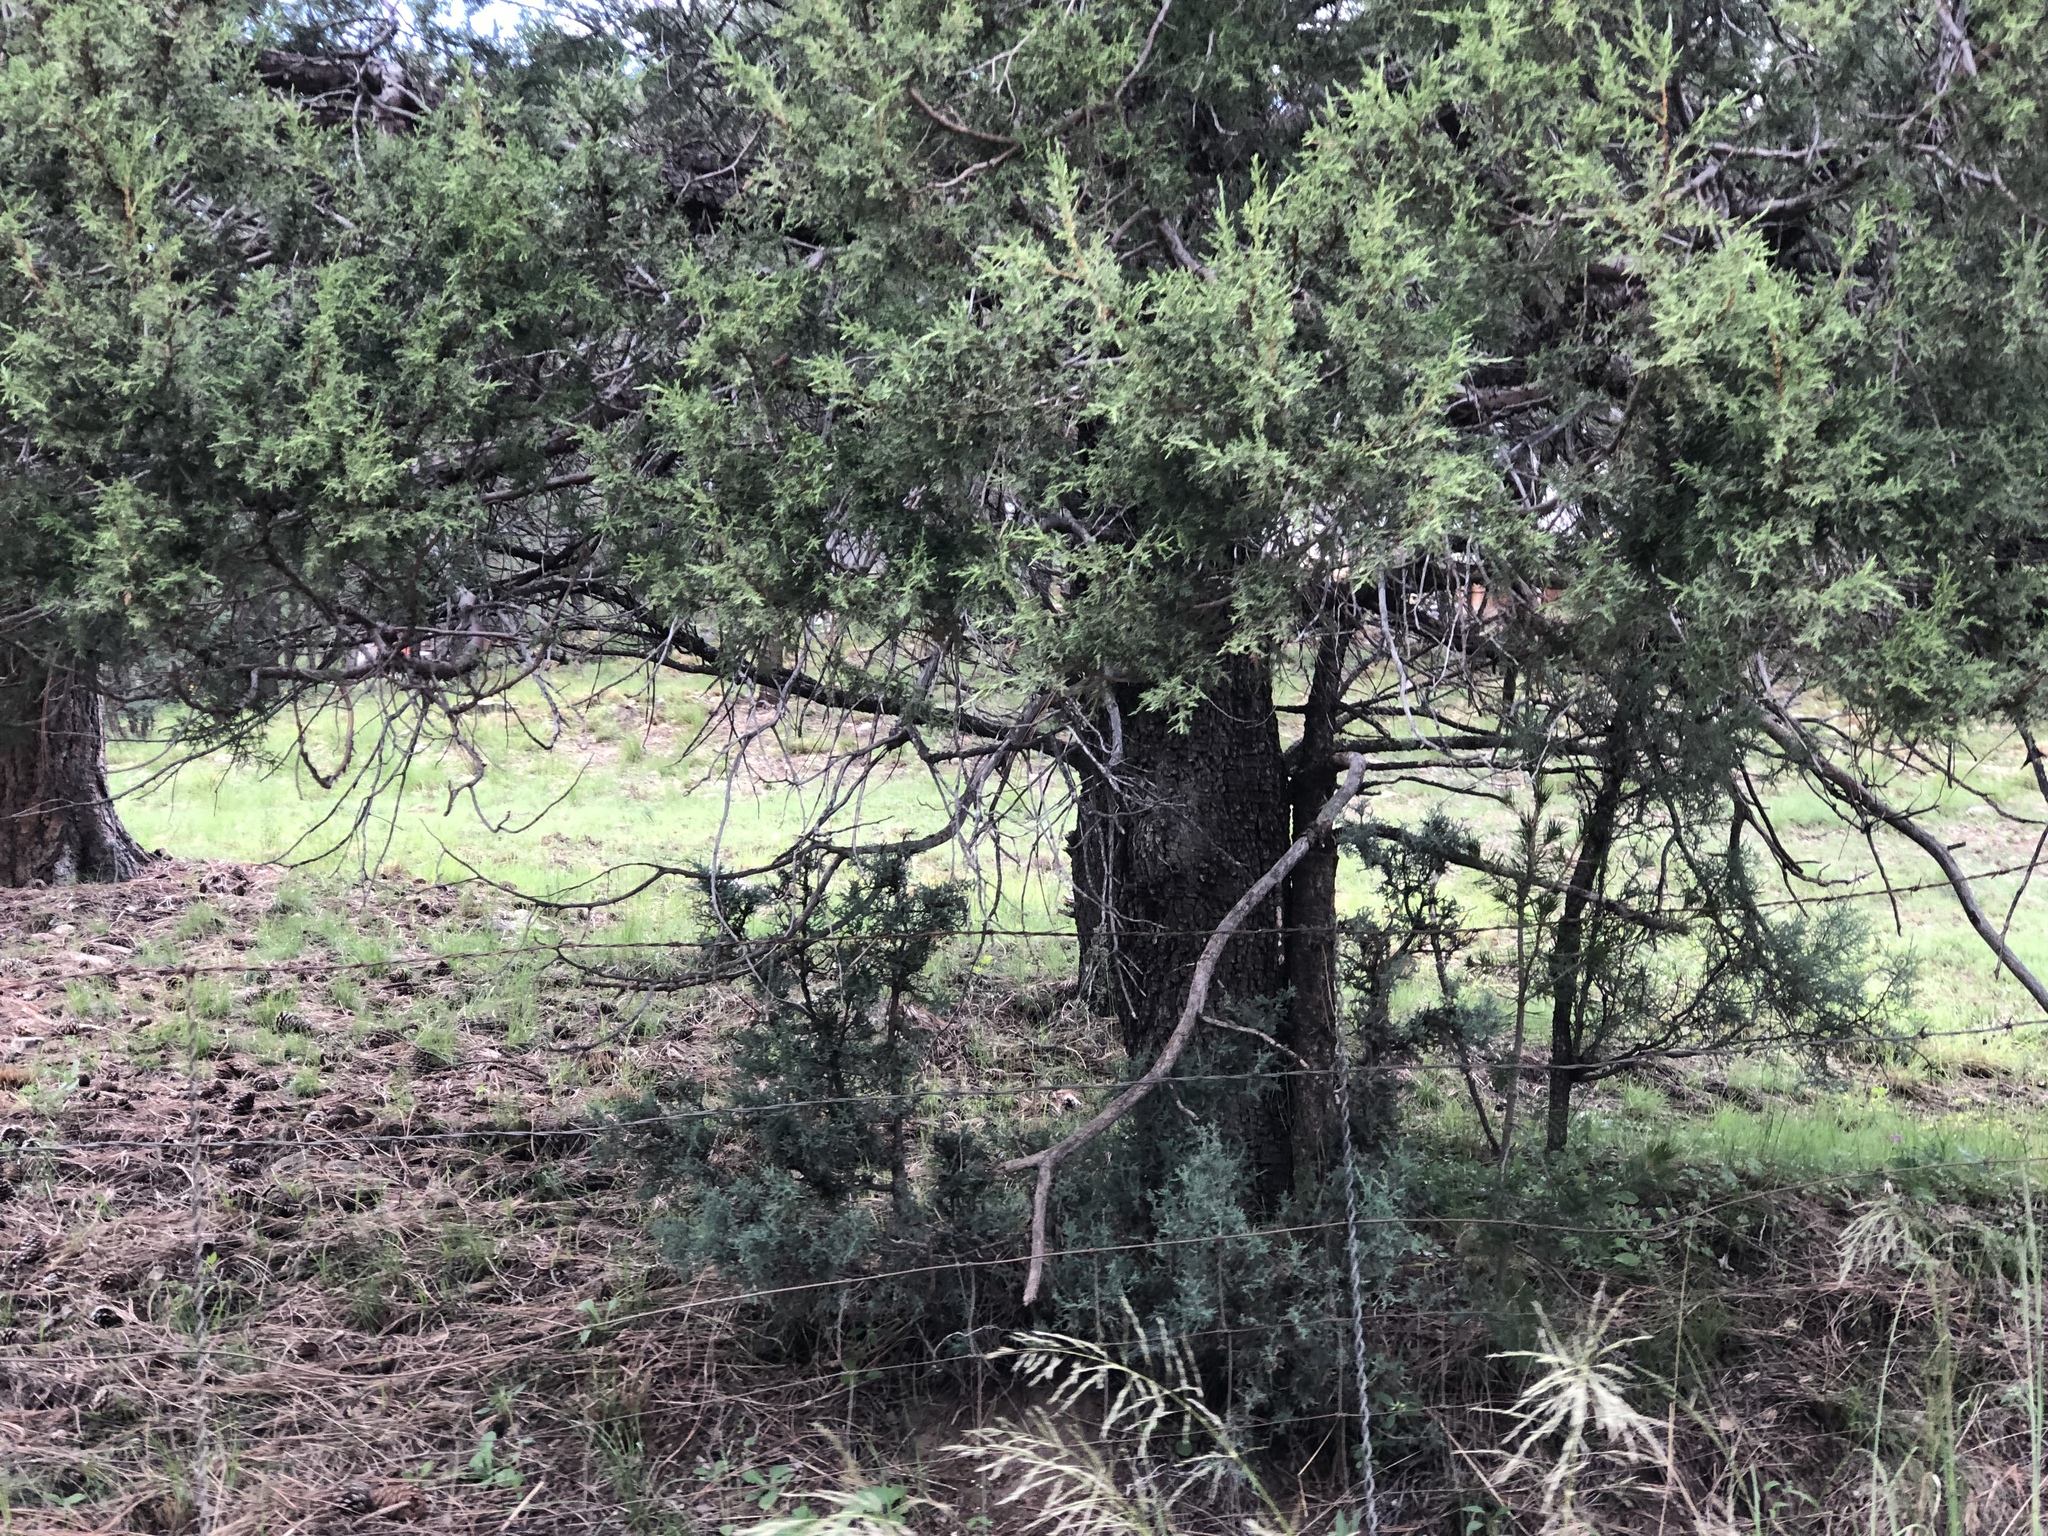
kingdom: Plantae
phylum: Tracheophyta
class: Pinopsida
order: Pinales
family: Cupressaceae
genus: Juniperus
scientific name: Juniperus deppeana
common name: Alligator juniper
